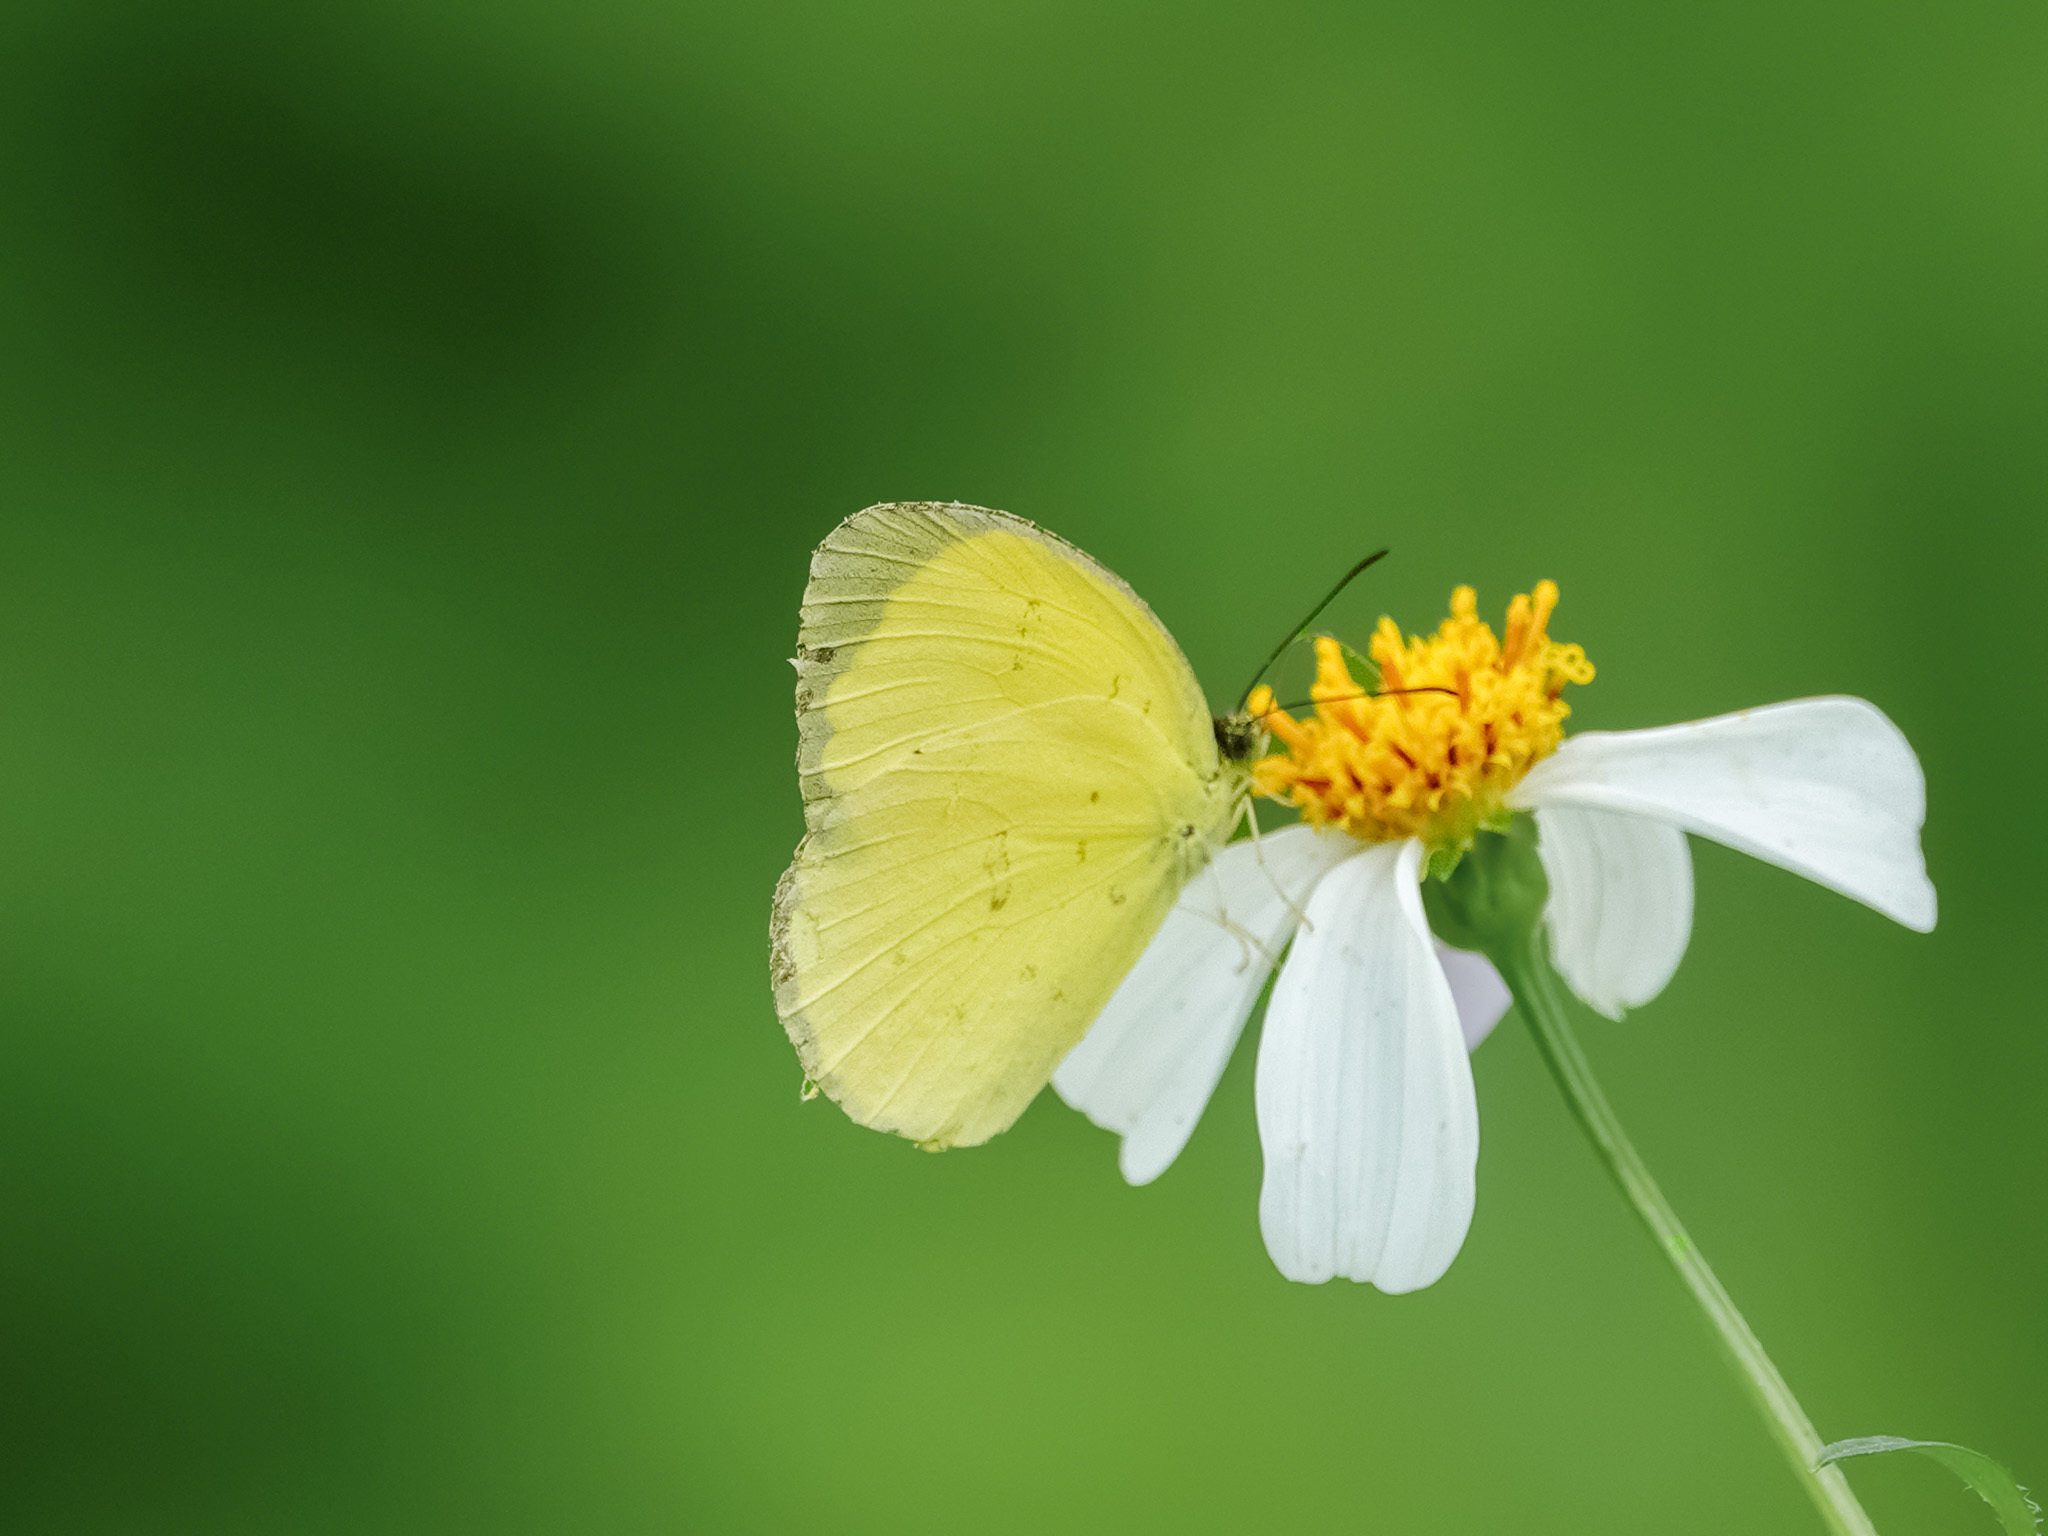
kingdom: Animalia
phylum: Arthropoda
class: Insecta
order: Lepidoptera
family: Pieridae
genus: Eurema
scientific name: Eurema blanda
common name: Three-spot grass yellow
